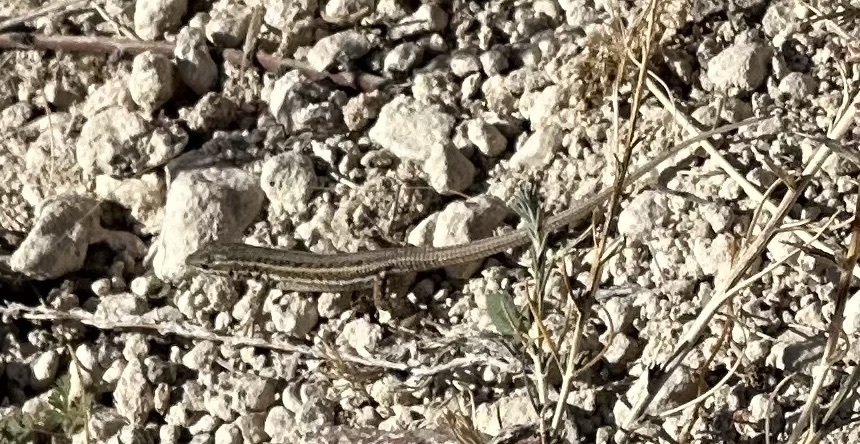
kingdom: Animalia
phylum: Chordata
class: Squamata
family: Lacertidae
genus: Ophisops
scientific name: Ophisops elegans
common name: Snake-eyed lizard
